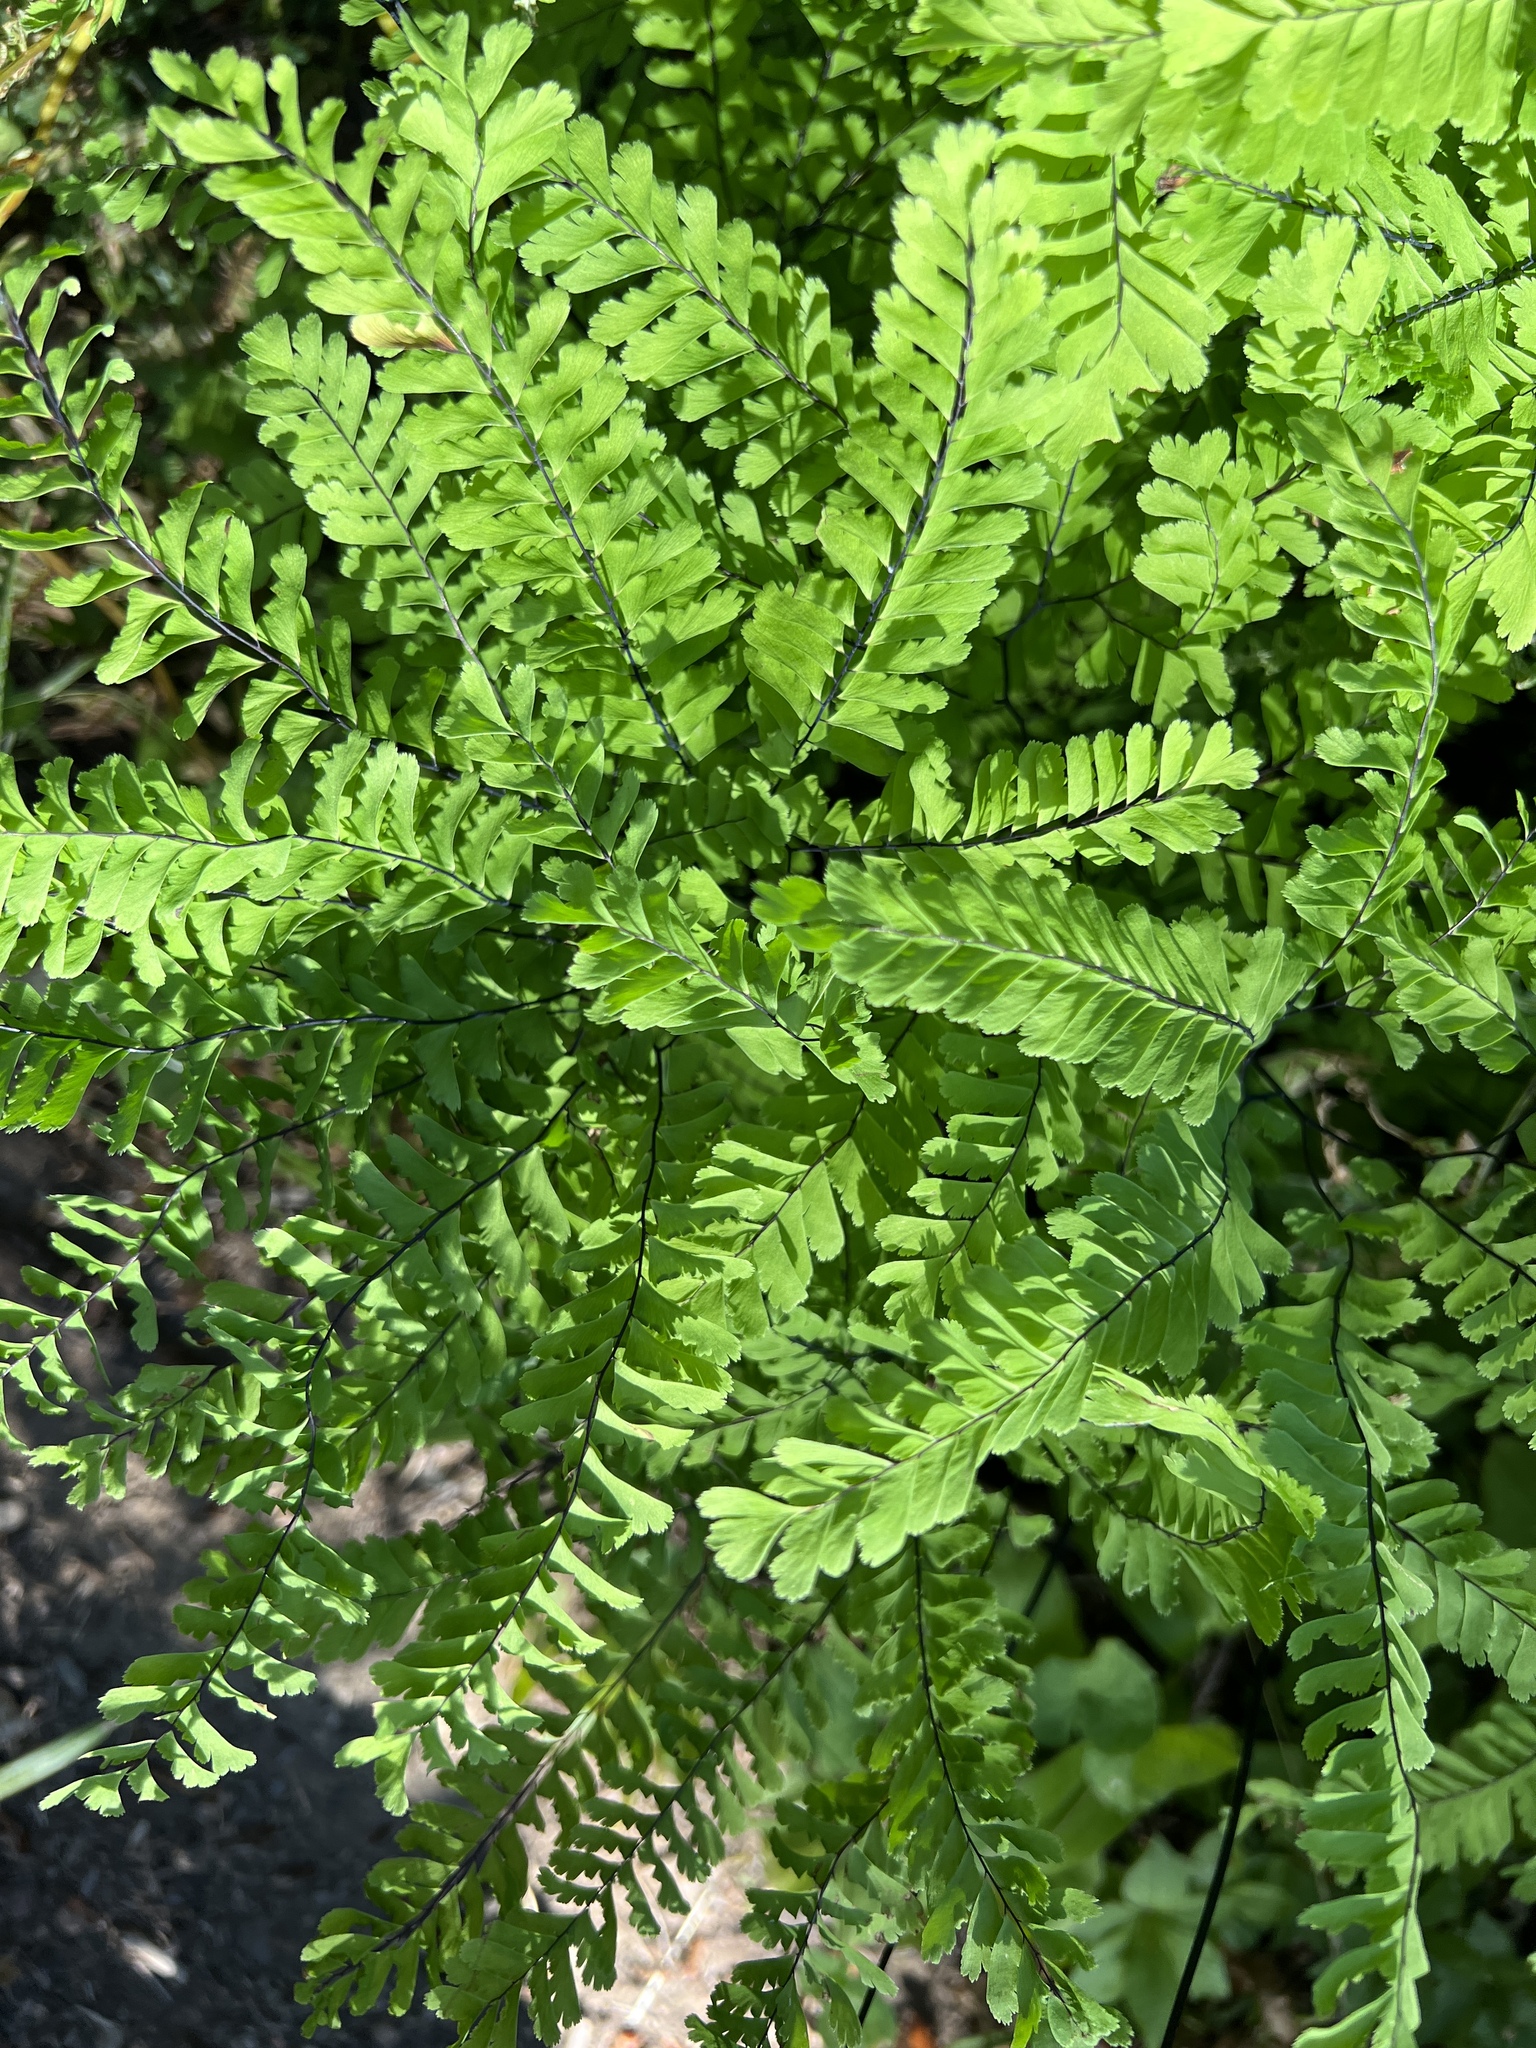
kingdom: Plantae
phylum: Tracheophyta
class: Polypodiopsida
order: Polypodiales
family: Pteridaceae
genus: Adiantum
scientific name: Adiantum aleuticum
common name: Aleutian maidenhair fern
